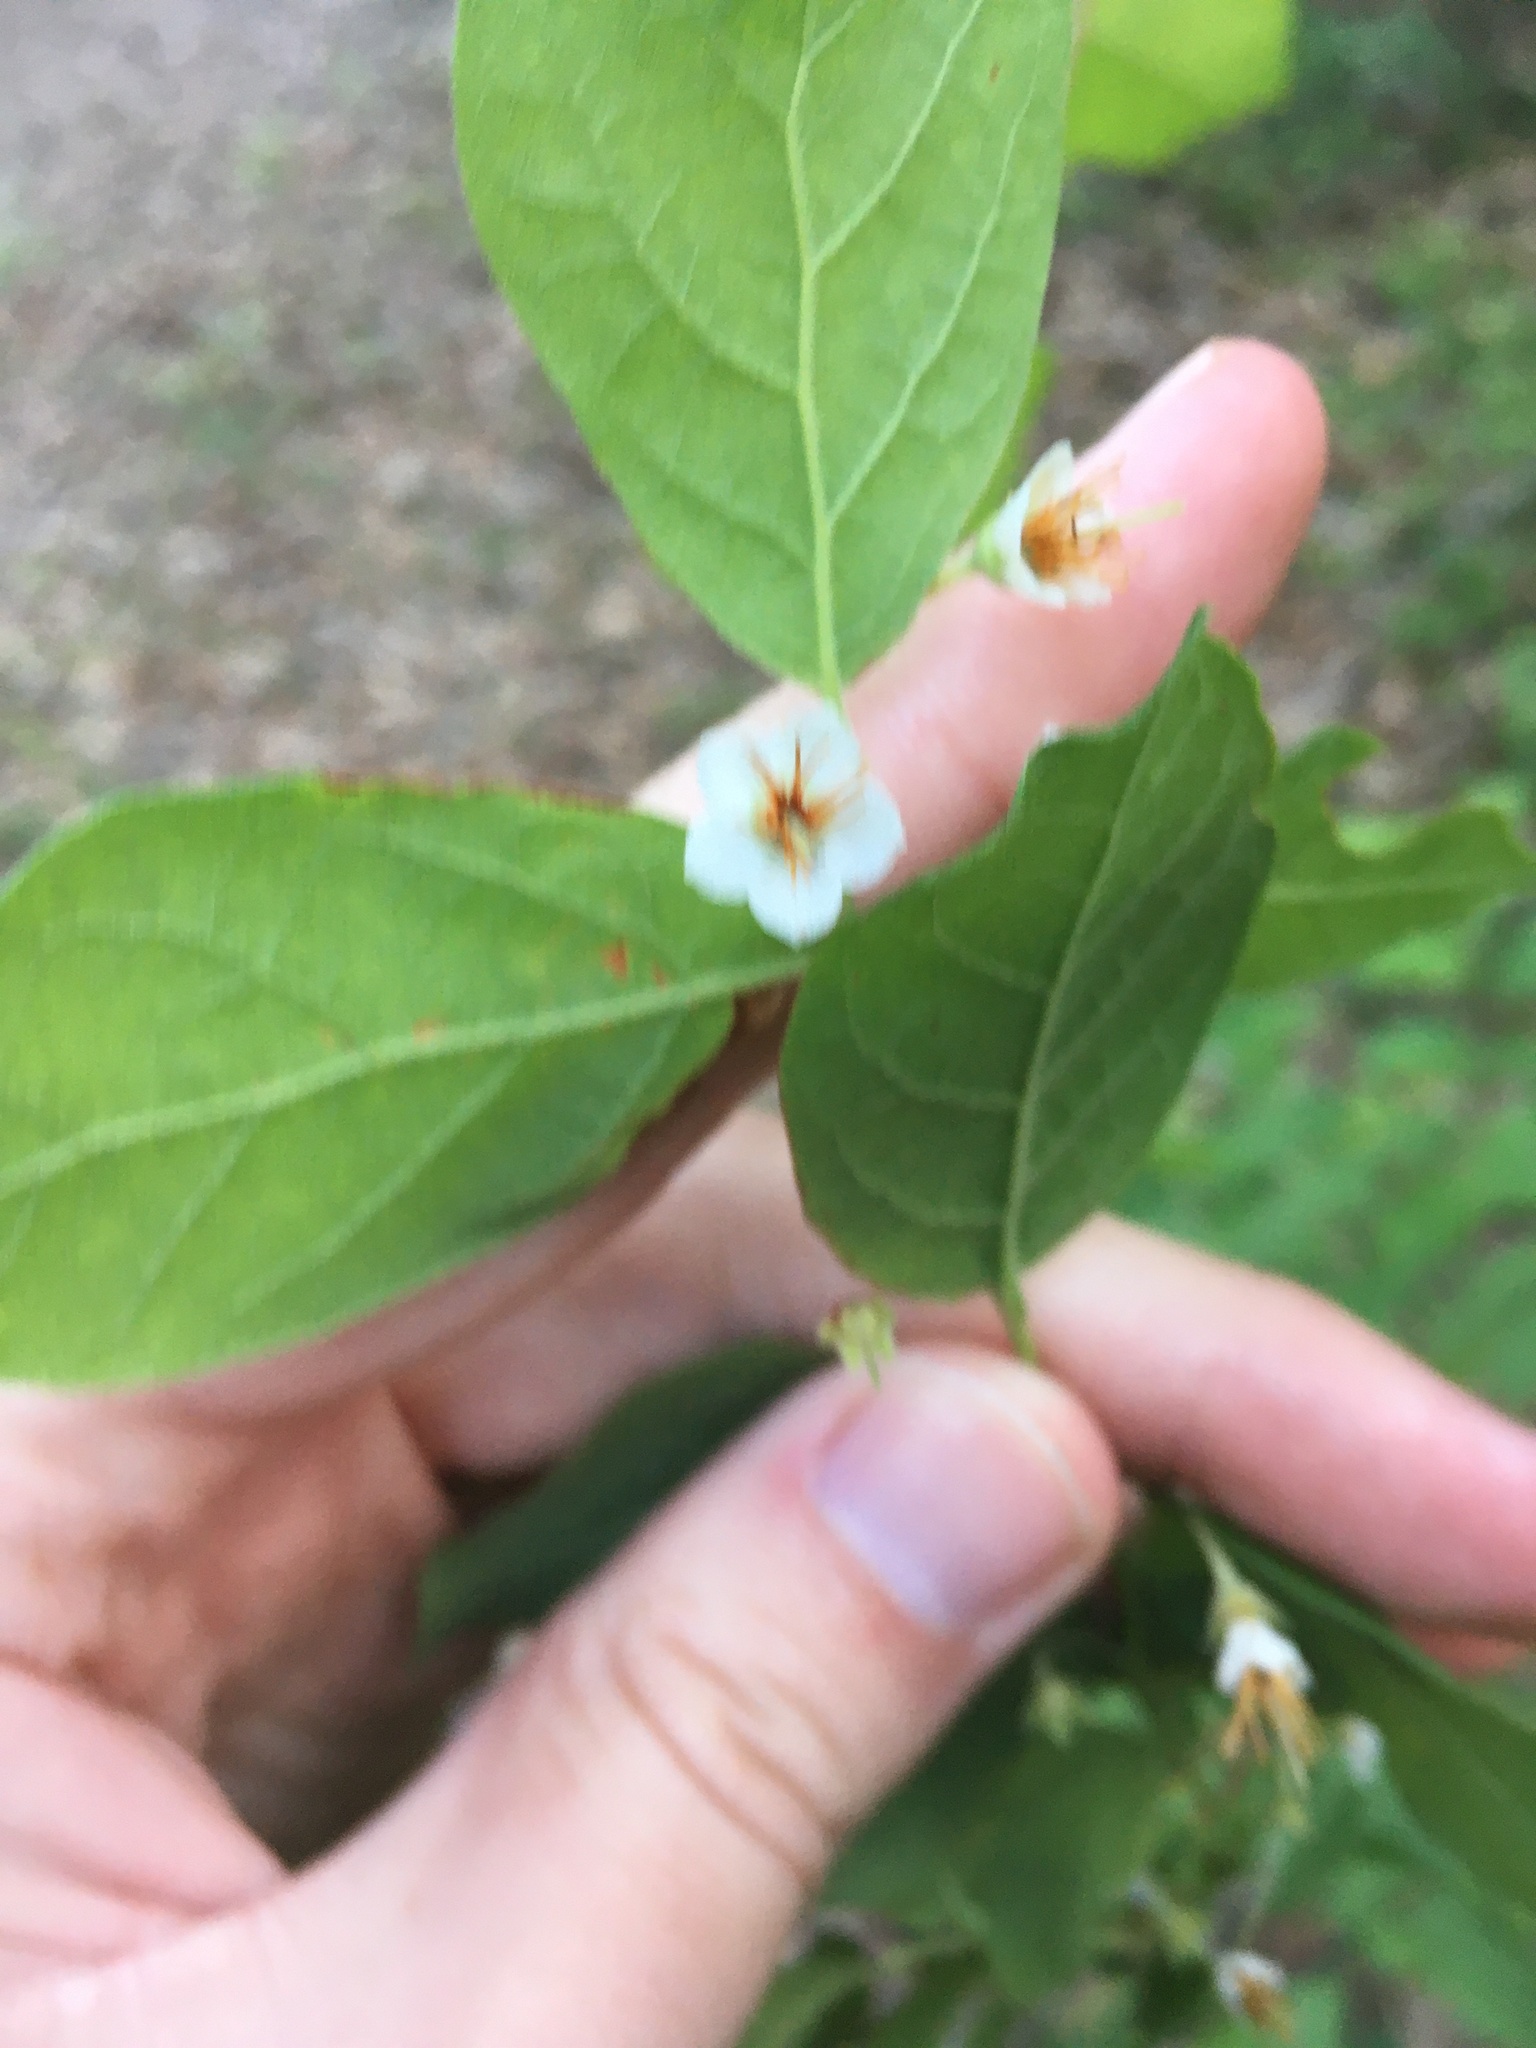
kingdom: Plantae
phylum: Tracheophyta
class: Magnoliopsida
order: Ericales
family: Ericaceae
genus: Vaccinium
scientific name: Vaccinium stamineum
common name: Deerberry
